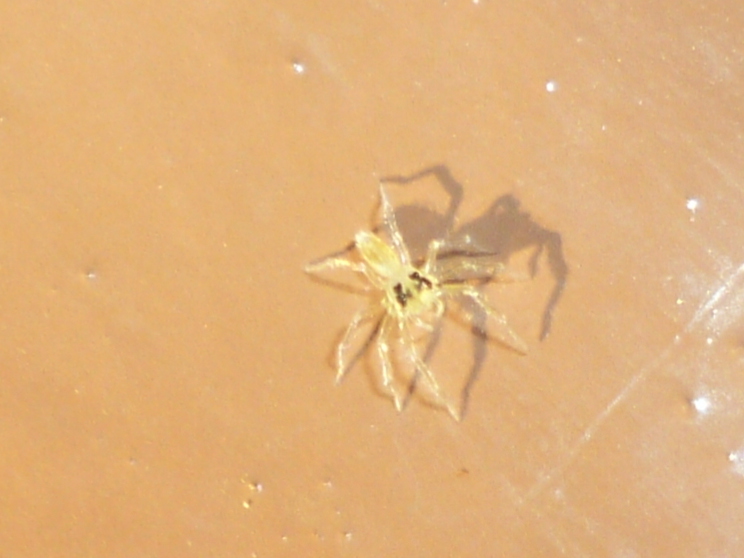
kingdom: Animalia
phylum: Arthropoda
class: Arachnida
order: Araneae
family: Salticidae
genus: Lyssomanes
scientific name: Lyssomanes viridis
